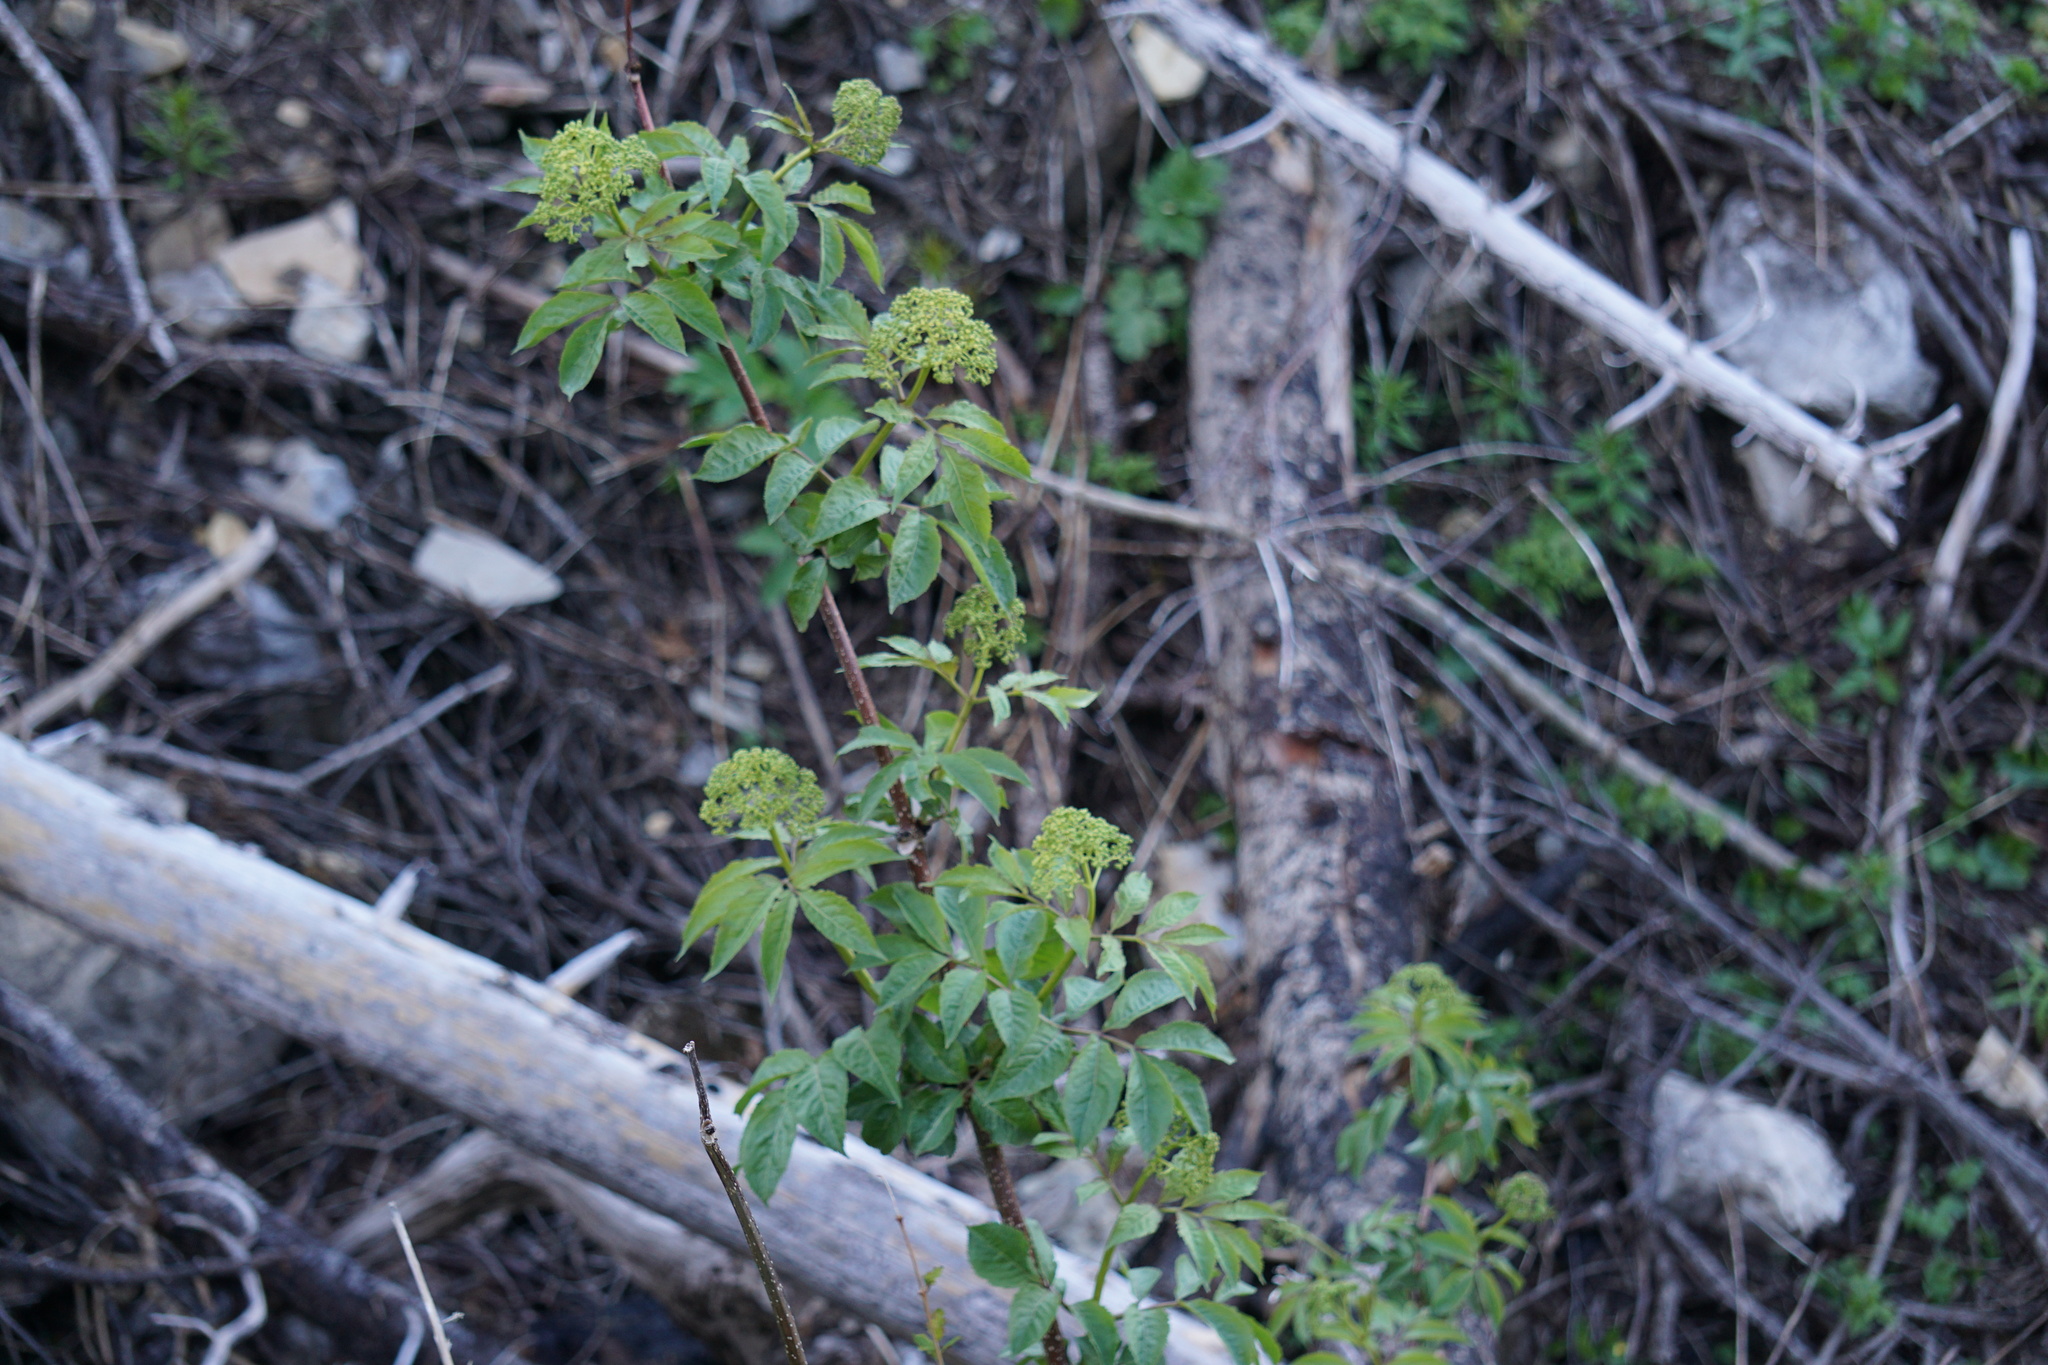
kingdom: Plantae
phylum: Tracheophyta
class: Magnoliopsida
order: Dipsacales
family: Viburnaceae
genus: Sambucus
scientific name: Sambucus racemosa
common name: Red-berried elder
